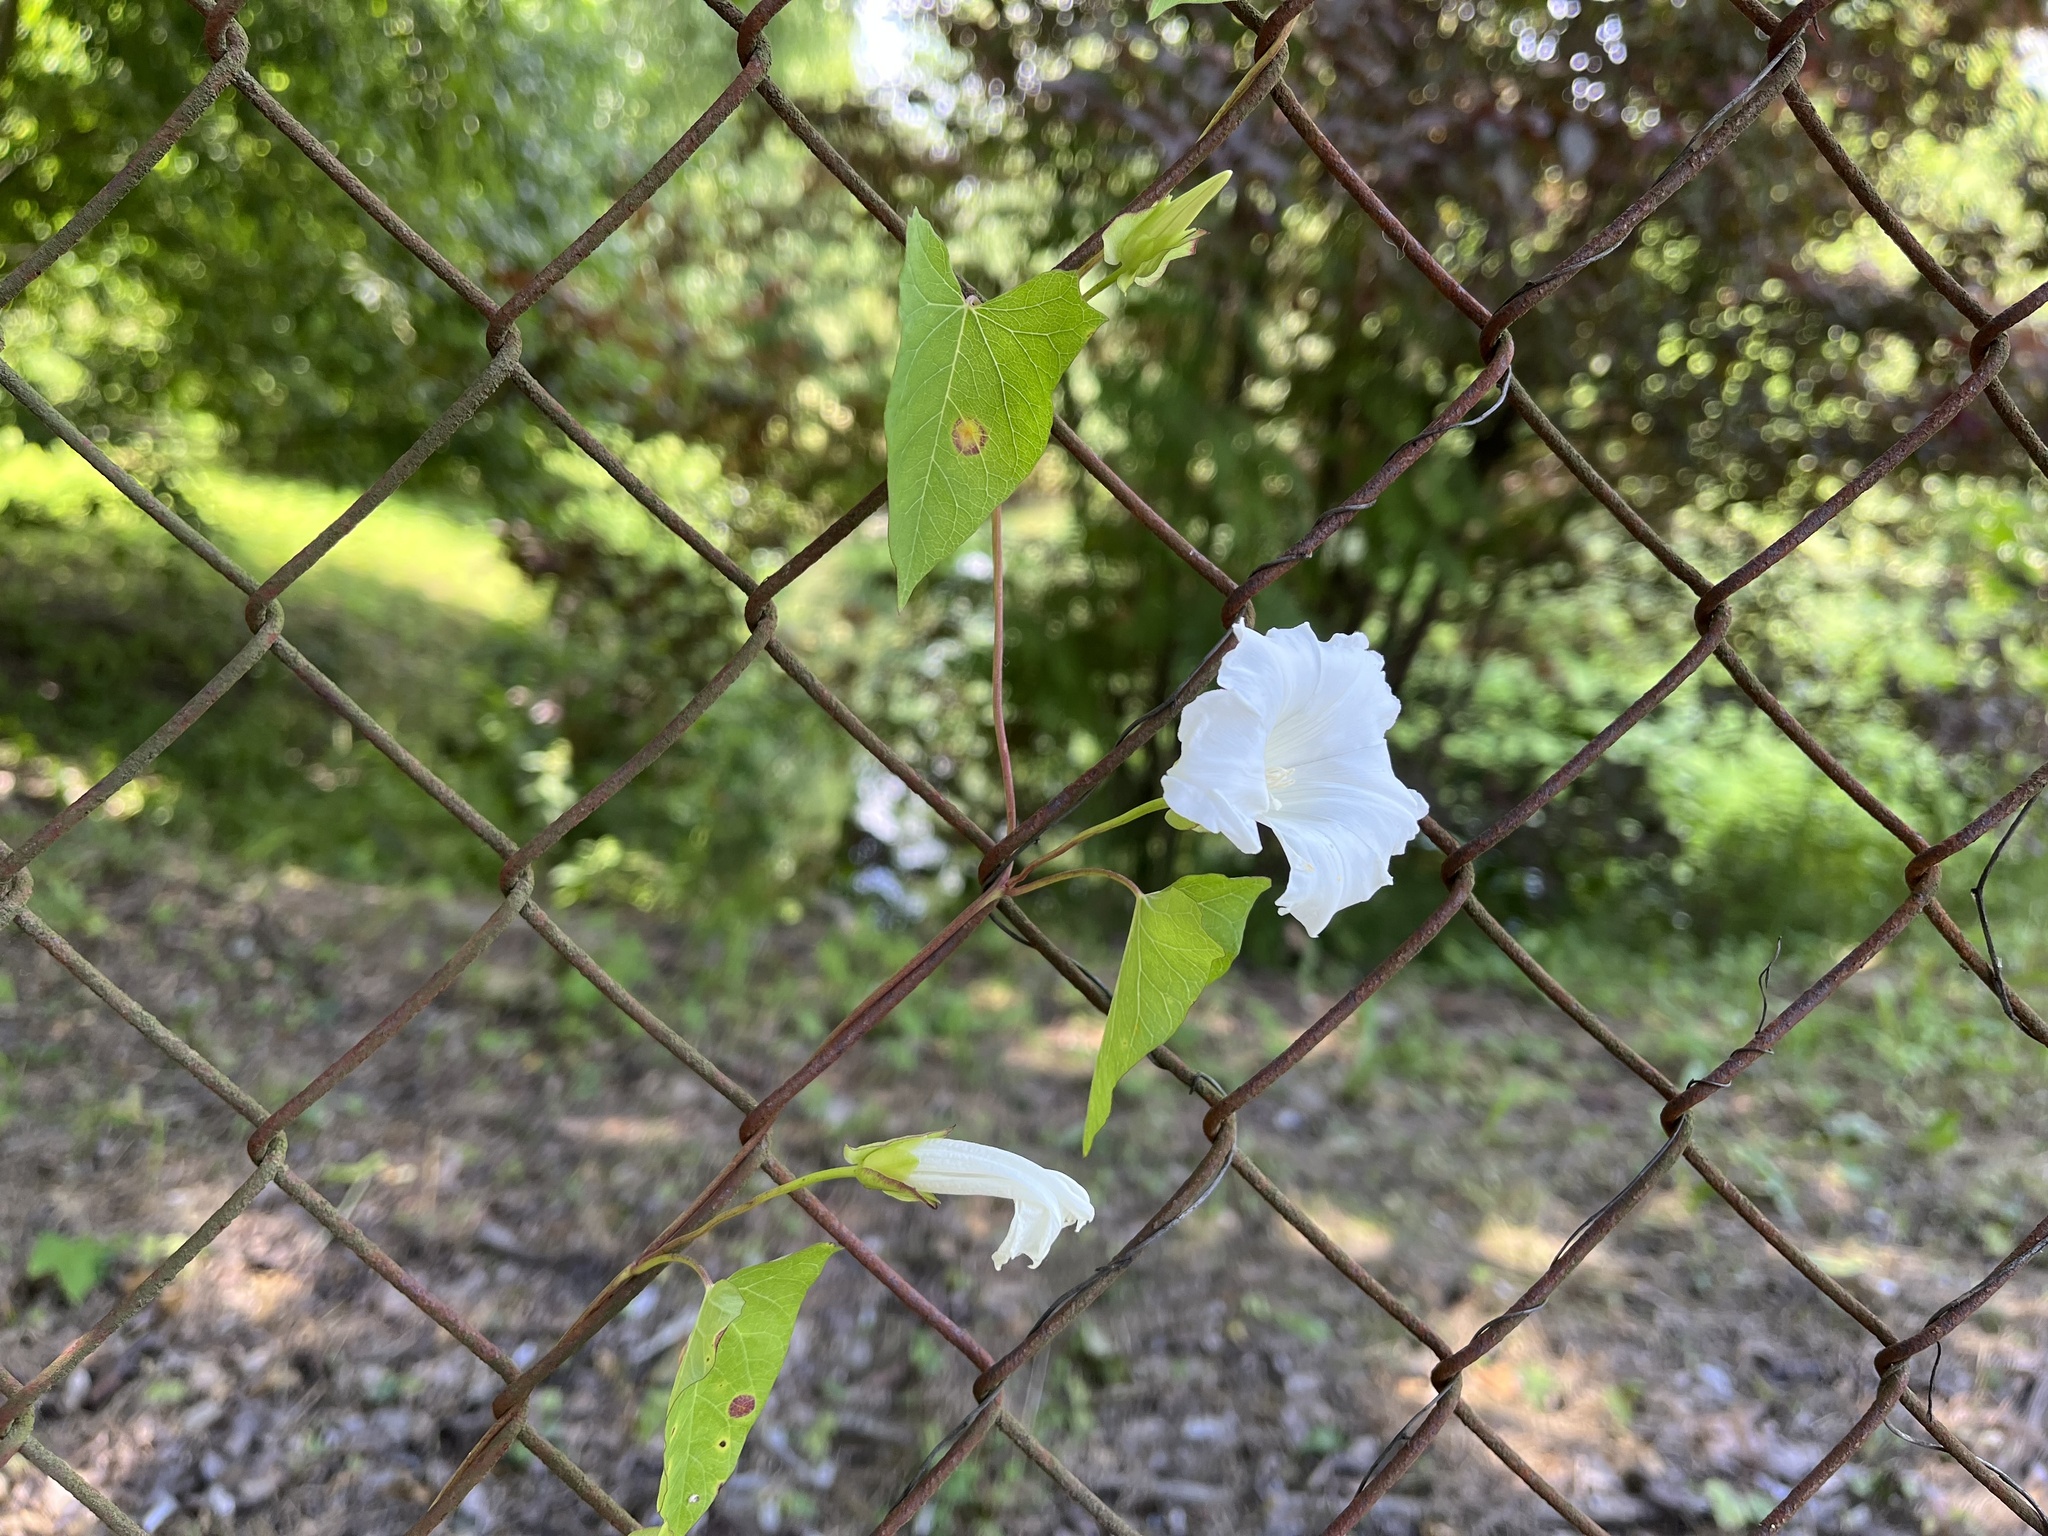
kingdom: Plantae
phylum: Tracheophyta
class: Magnoliopsida
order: Solanales
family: Convolvulaceae
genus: Calystegia
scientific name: Calystegia sepium
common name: Hedge bindweed
